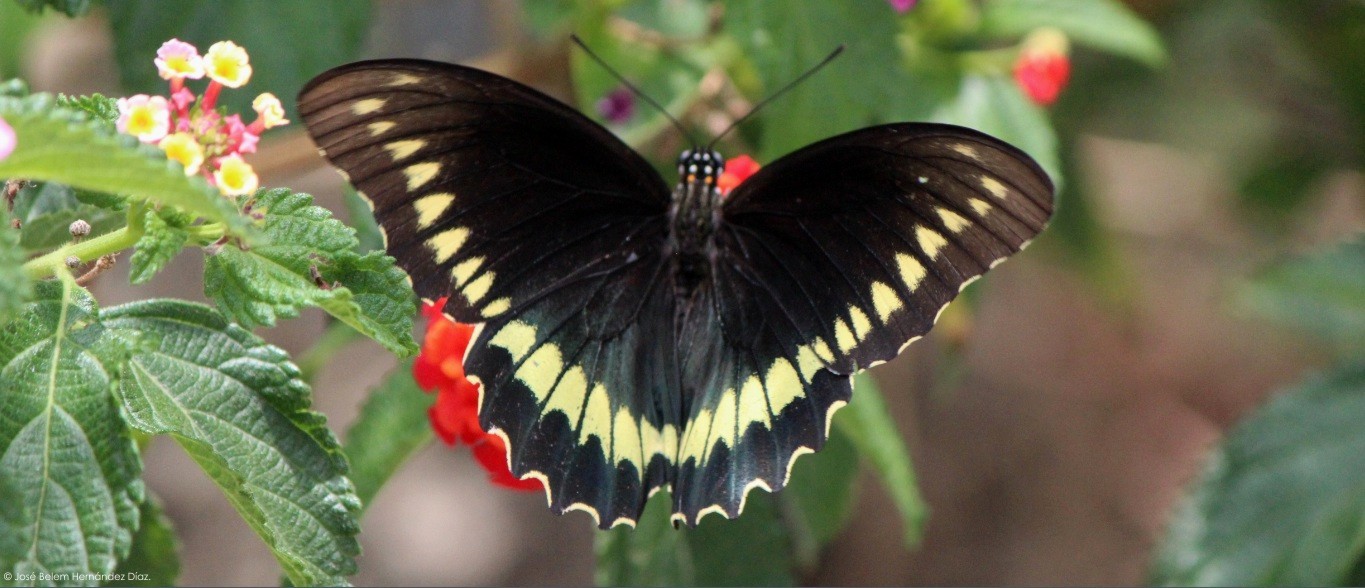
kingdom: Animalia
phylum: Arthropoda
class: Insecta
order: Lepidoptera
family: Papilionidae
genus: Battus
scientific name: Battus polydamas
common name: Polydamas swallowtail
